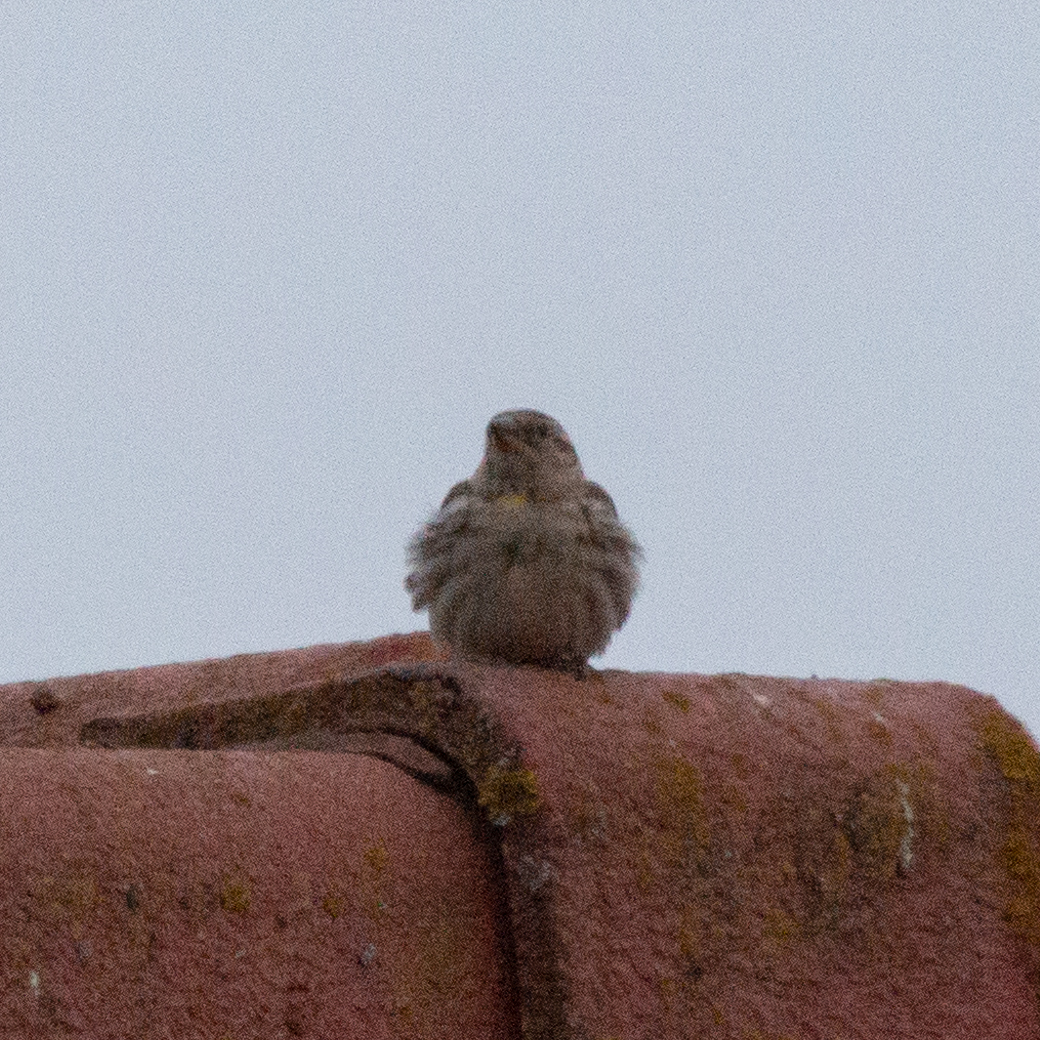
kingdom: Animalia
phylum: Chordata
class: Aves
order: Passeriformes
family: Passeridae
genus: Petronia
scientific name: Petronia petronia
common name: Rock sparrow
